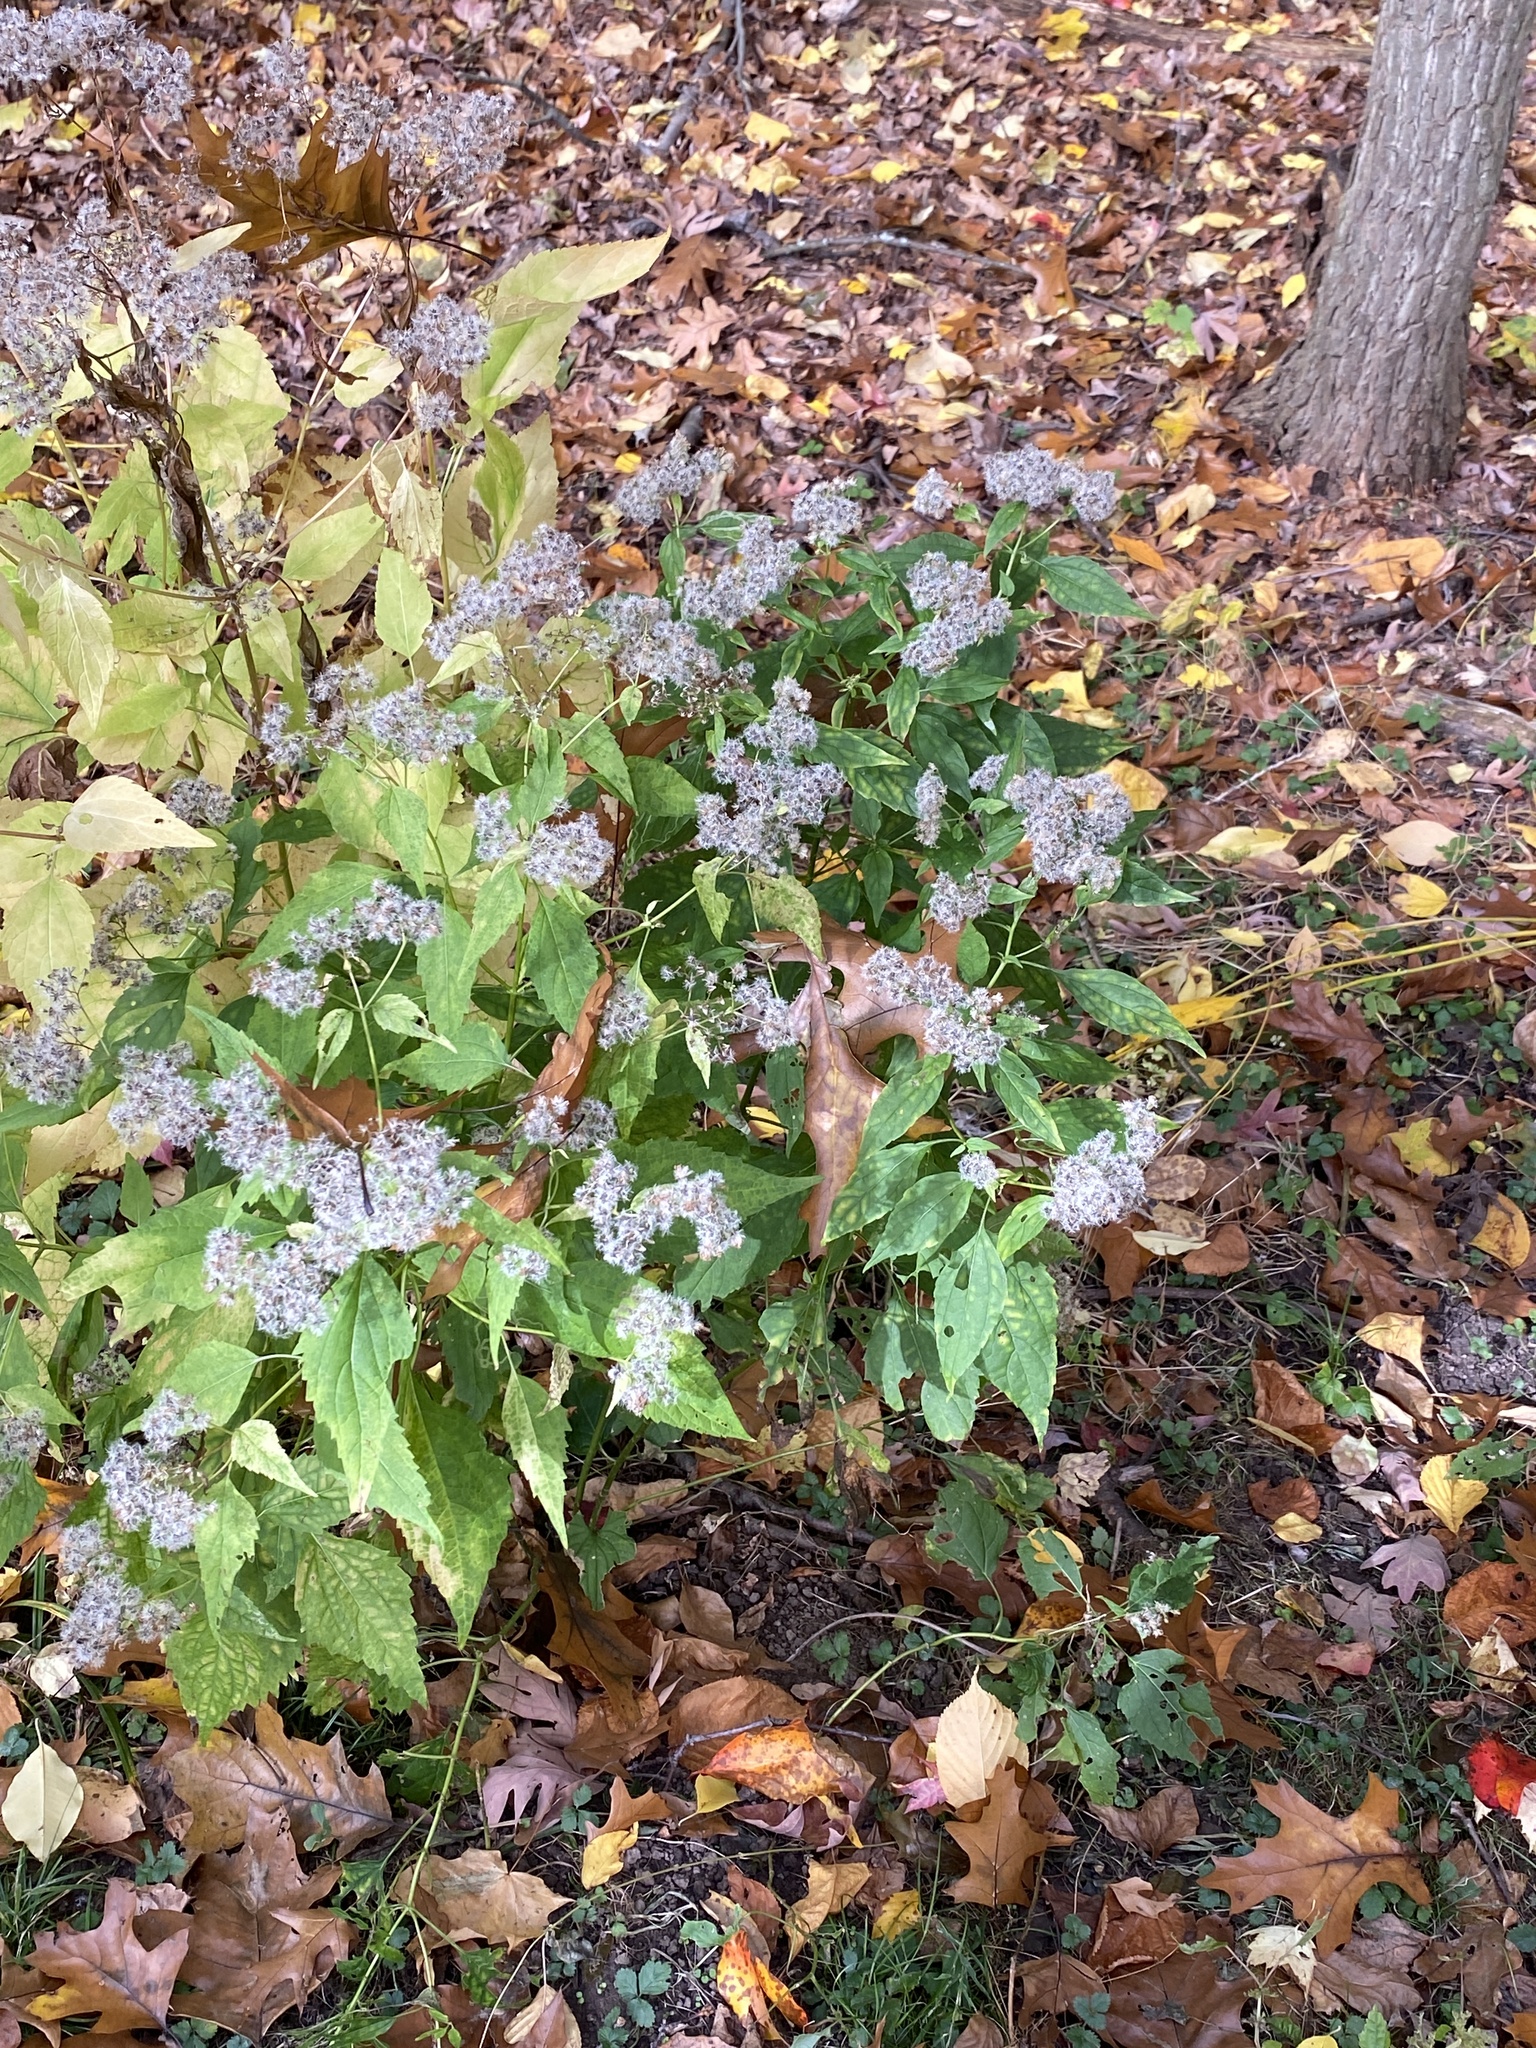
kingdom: Plantae
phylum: Tracheophyta
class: Magnoliopsida
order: Asterales
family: Asteraceae
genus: Ageratina
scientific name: Ageratina altissima
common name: White snakeroot
